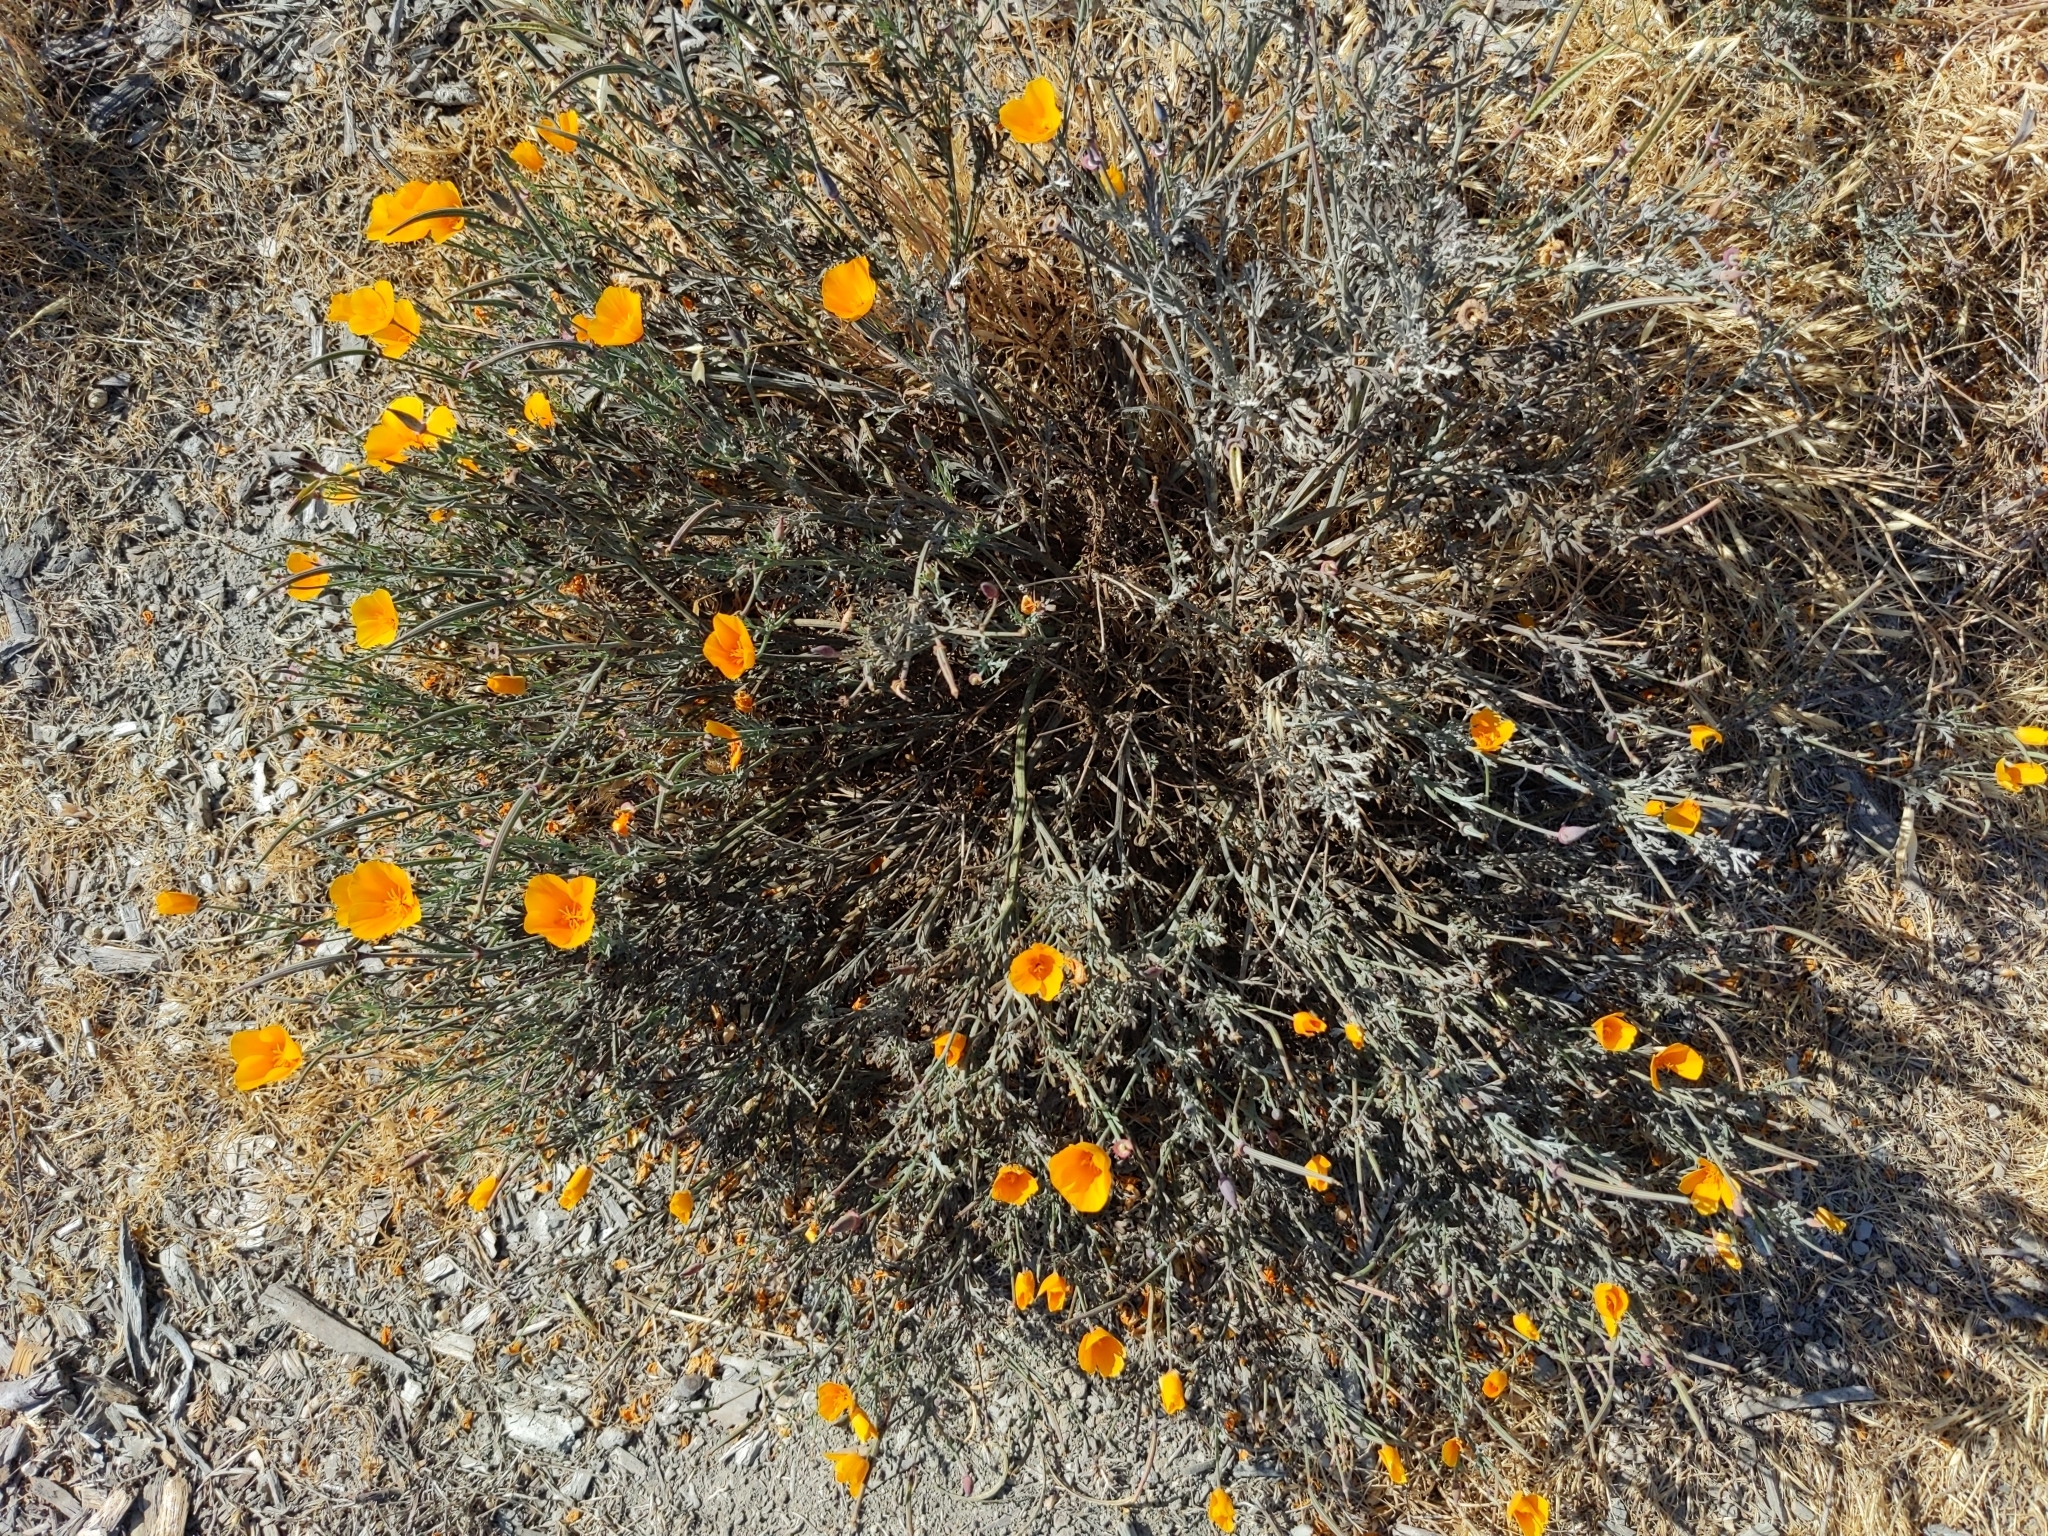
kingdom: Plantae
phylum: Tracheophyta
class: Magnoliopsida
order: Ranunculales
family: Papaveraceae
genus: Eschscholzia
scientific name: Eschscholzia californica
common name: California poppy
